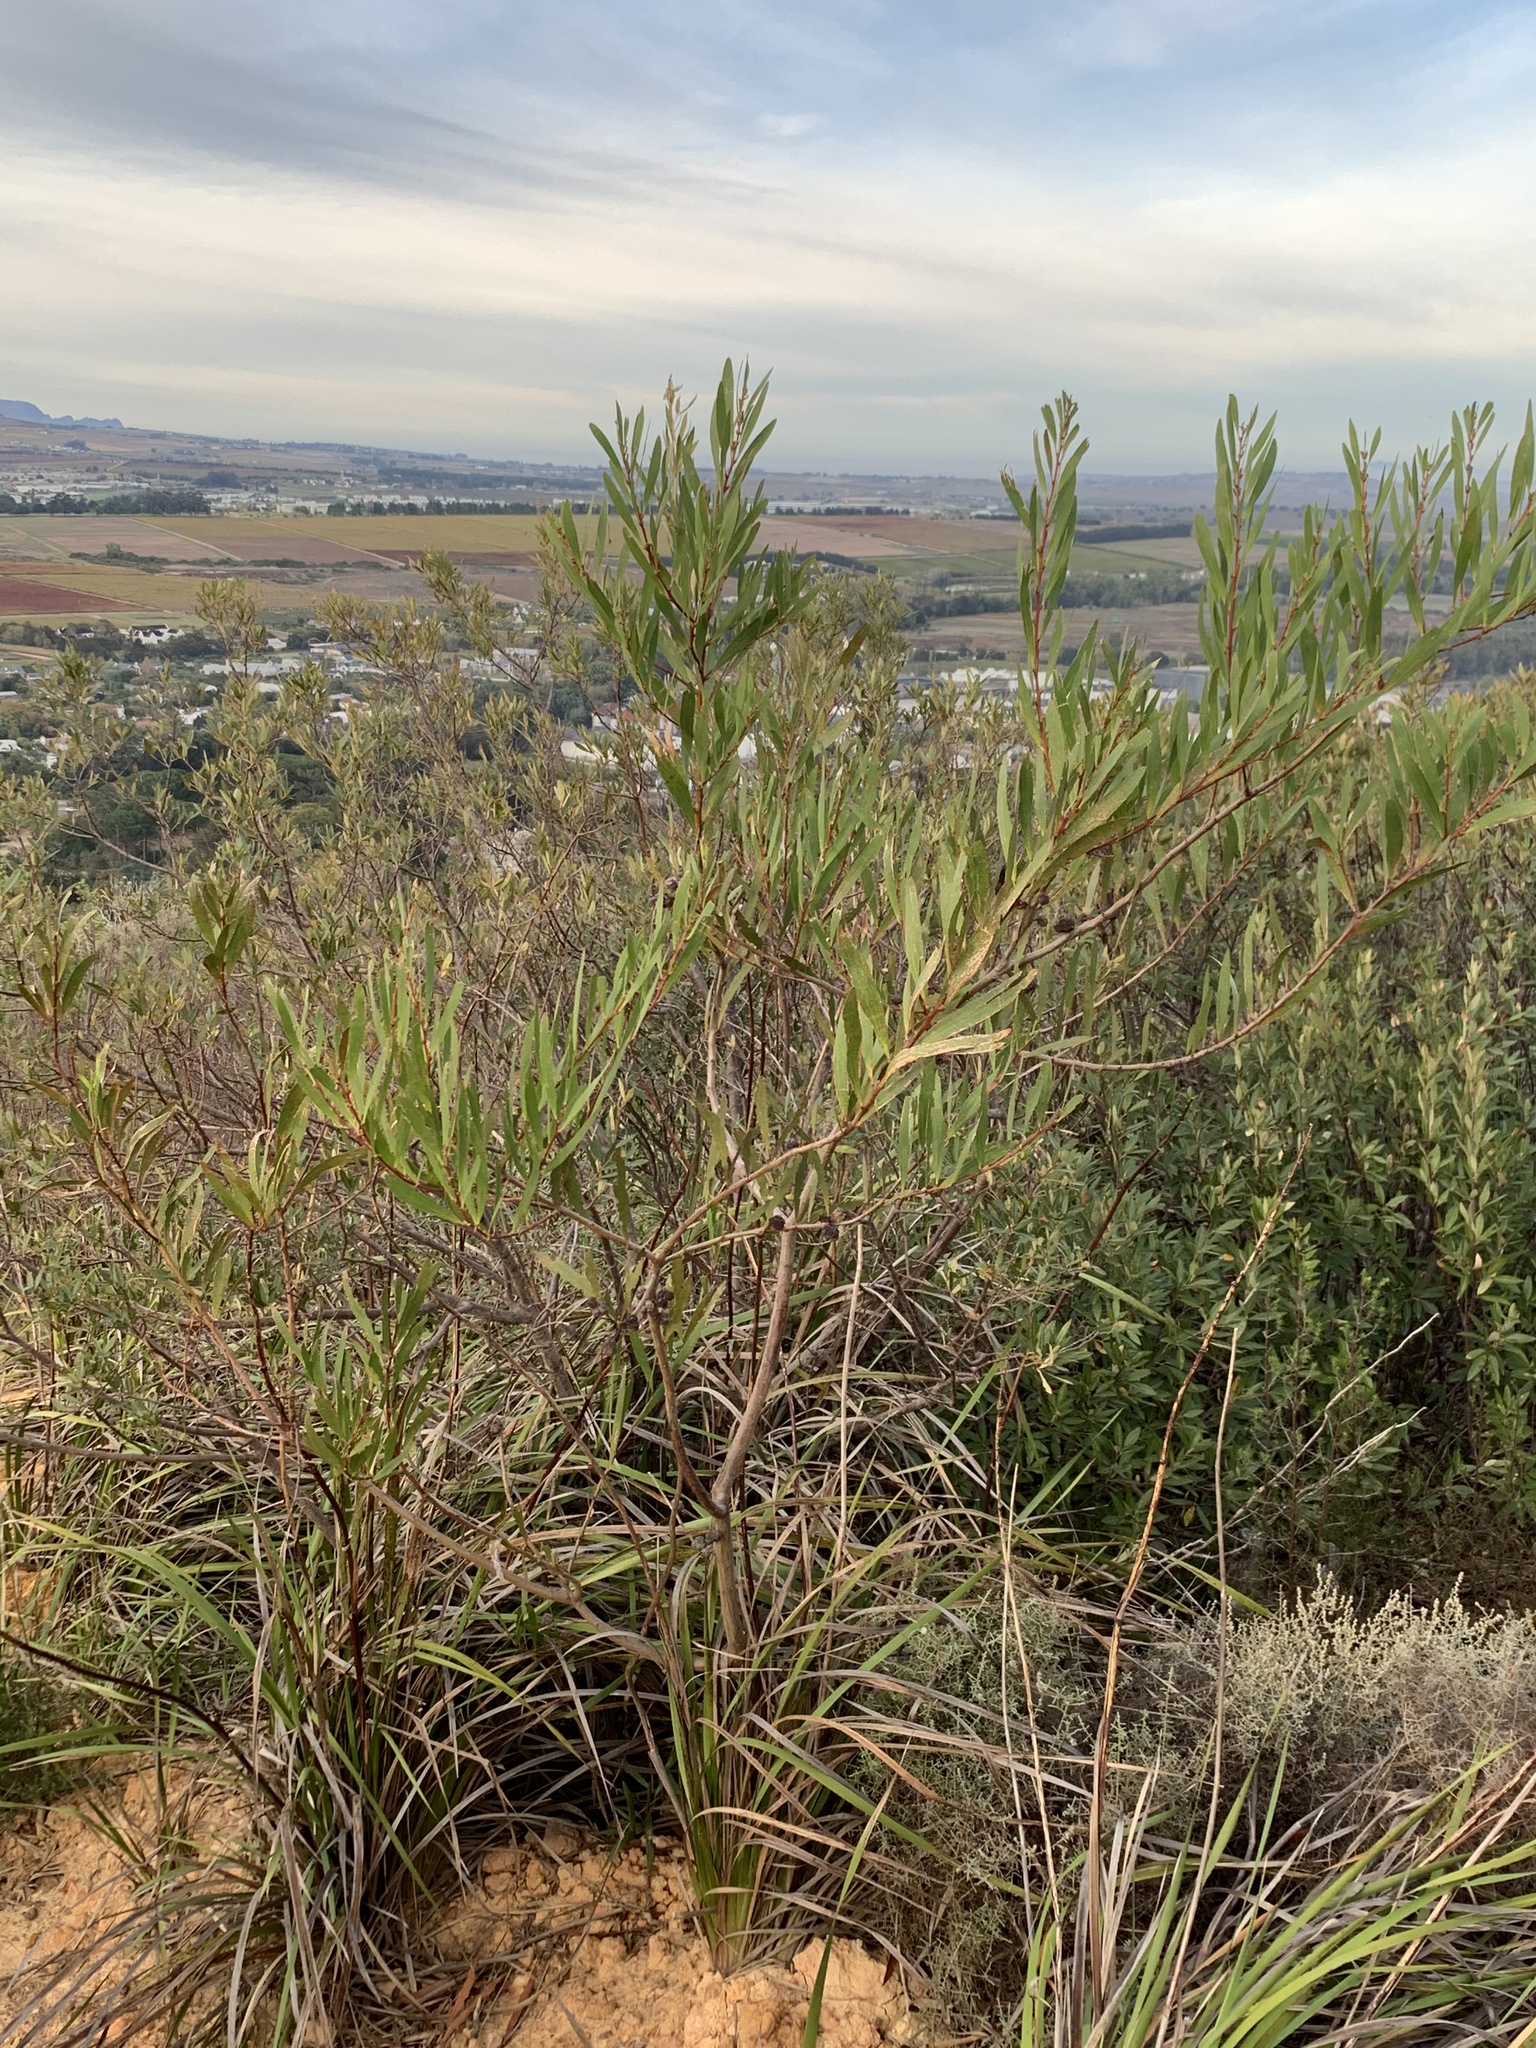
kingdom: Plantae
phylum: Tracheophyta
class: Magnoliopsida
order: Fabales
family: Fabaceae
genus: Acacia
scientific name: Acacia longifolia
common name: Sydney golden wattle
